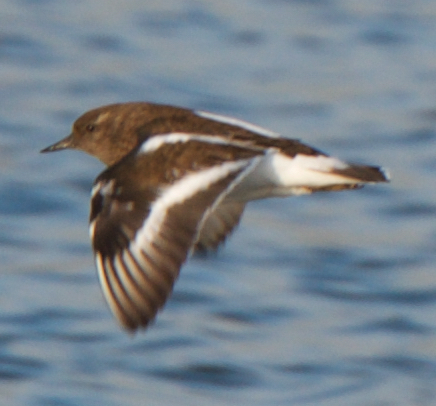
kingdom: Animalia
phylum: Chordata
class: Aves
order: Charadriiformes
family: Scolopacidae
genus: Arenaria
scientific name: Arenaria melanocephala
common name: Black turnstone
